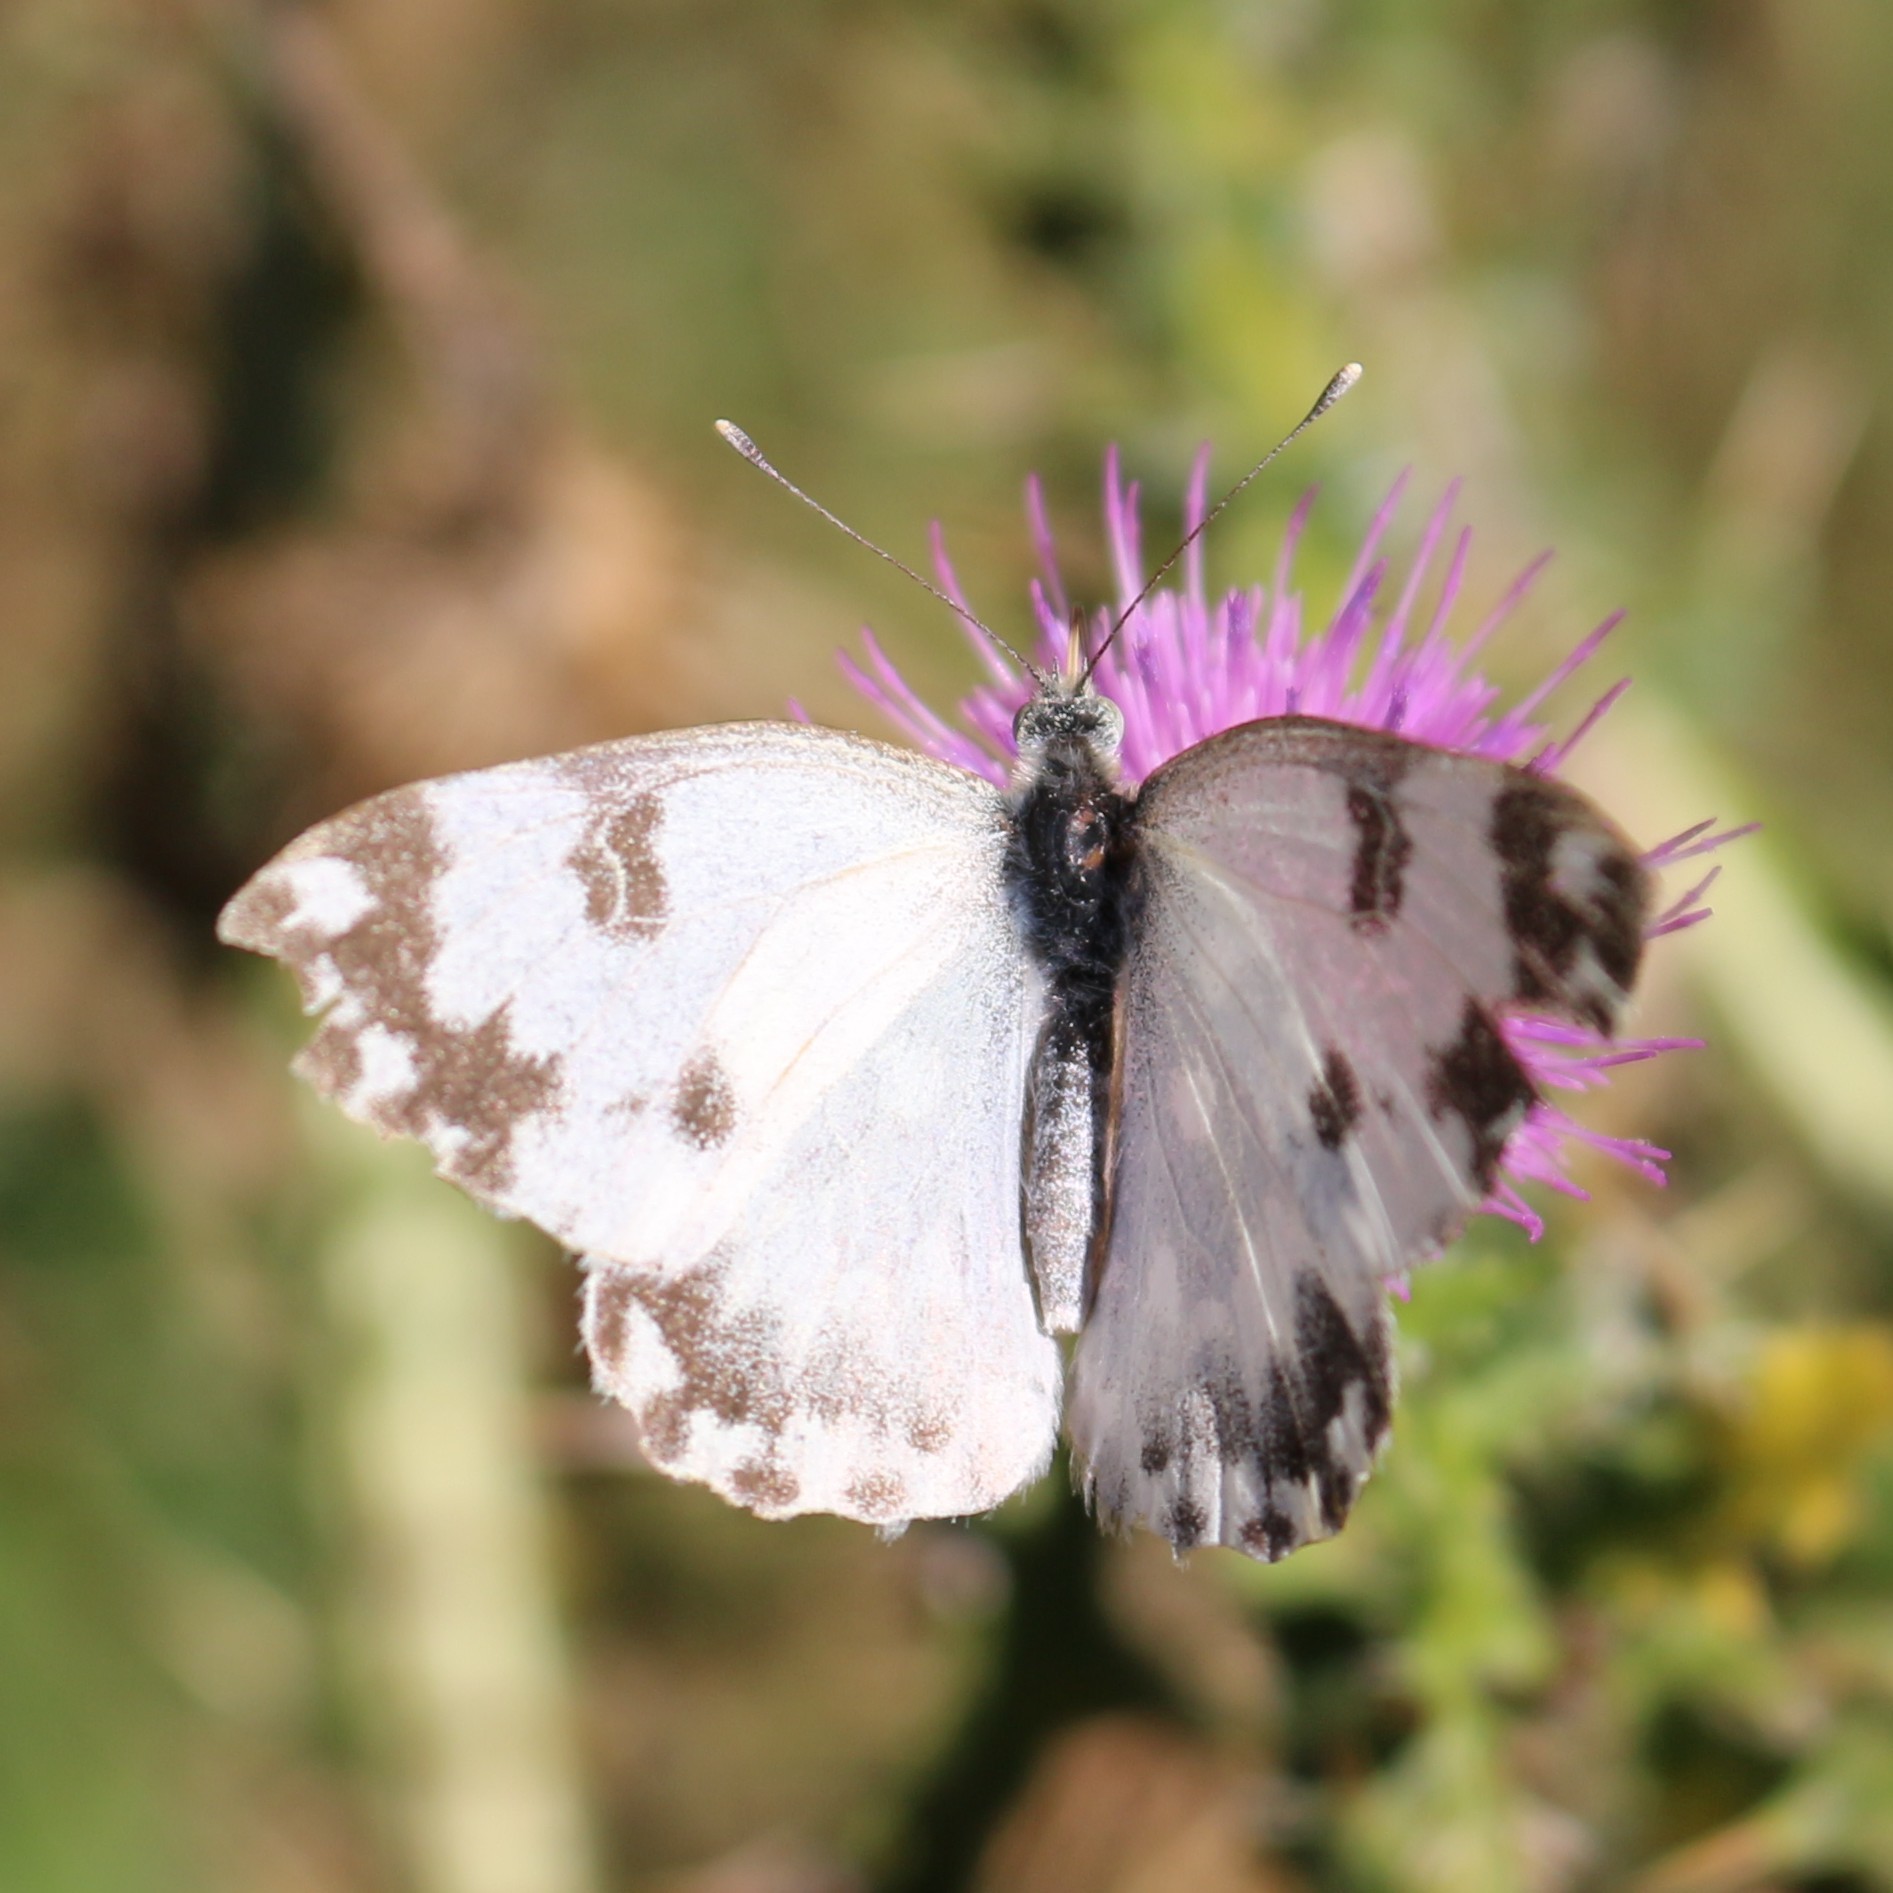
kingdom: Animalia
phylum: Arthropoda
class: Insecta
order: Lepidoptera
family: Pieridae
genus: Pontia
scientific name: Pontia edusa
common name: Eastern bath white
